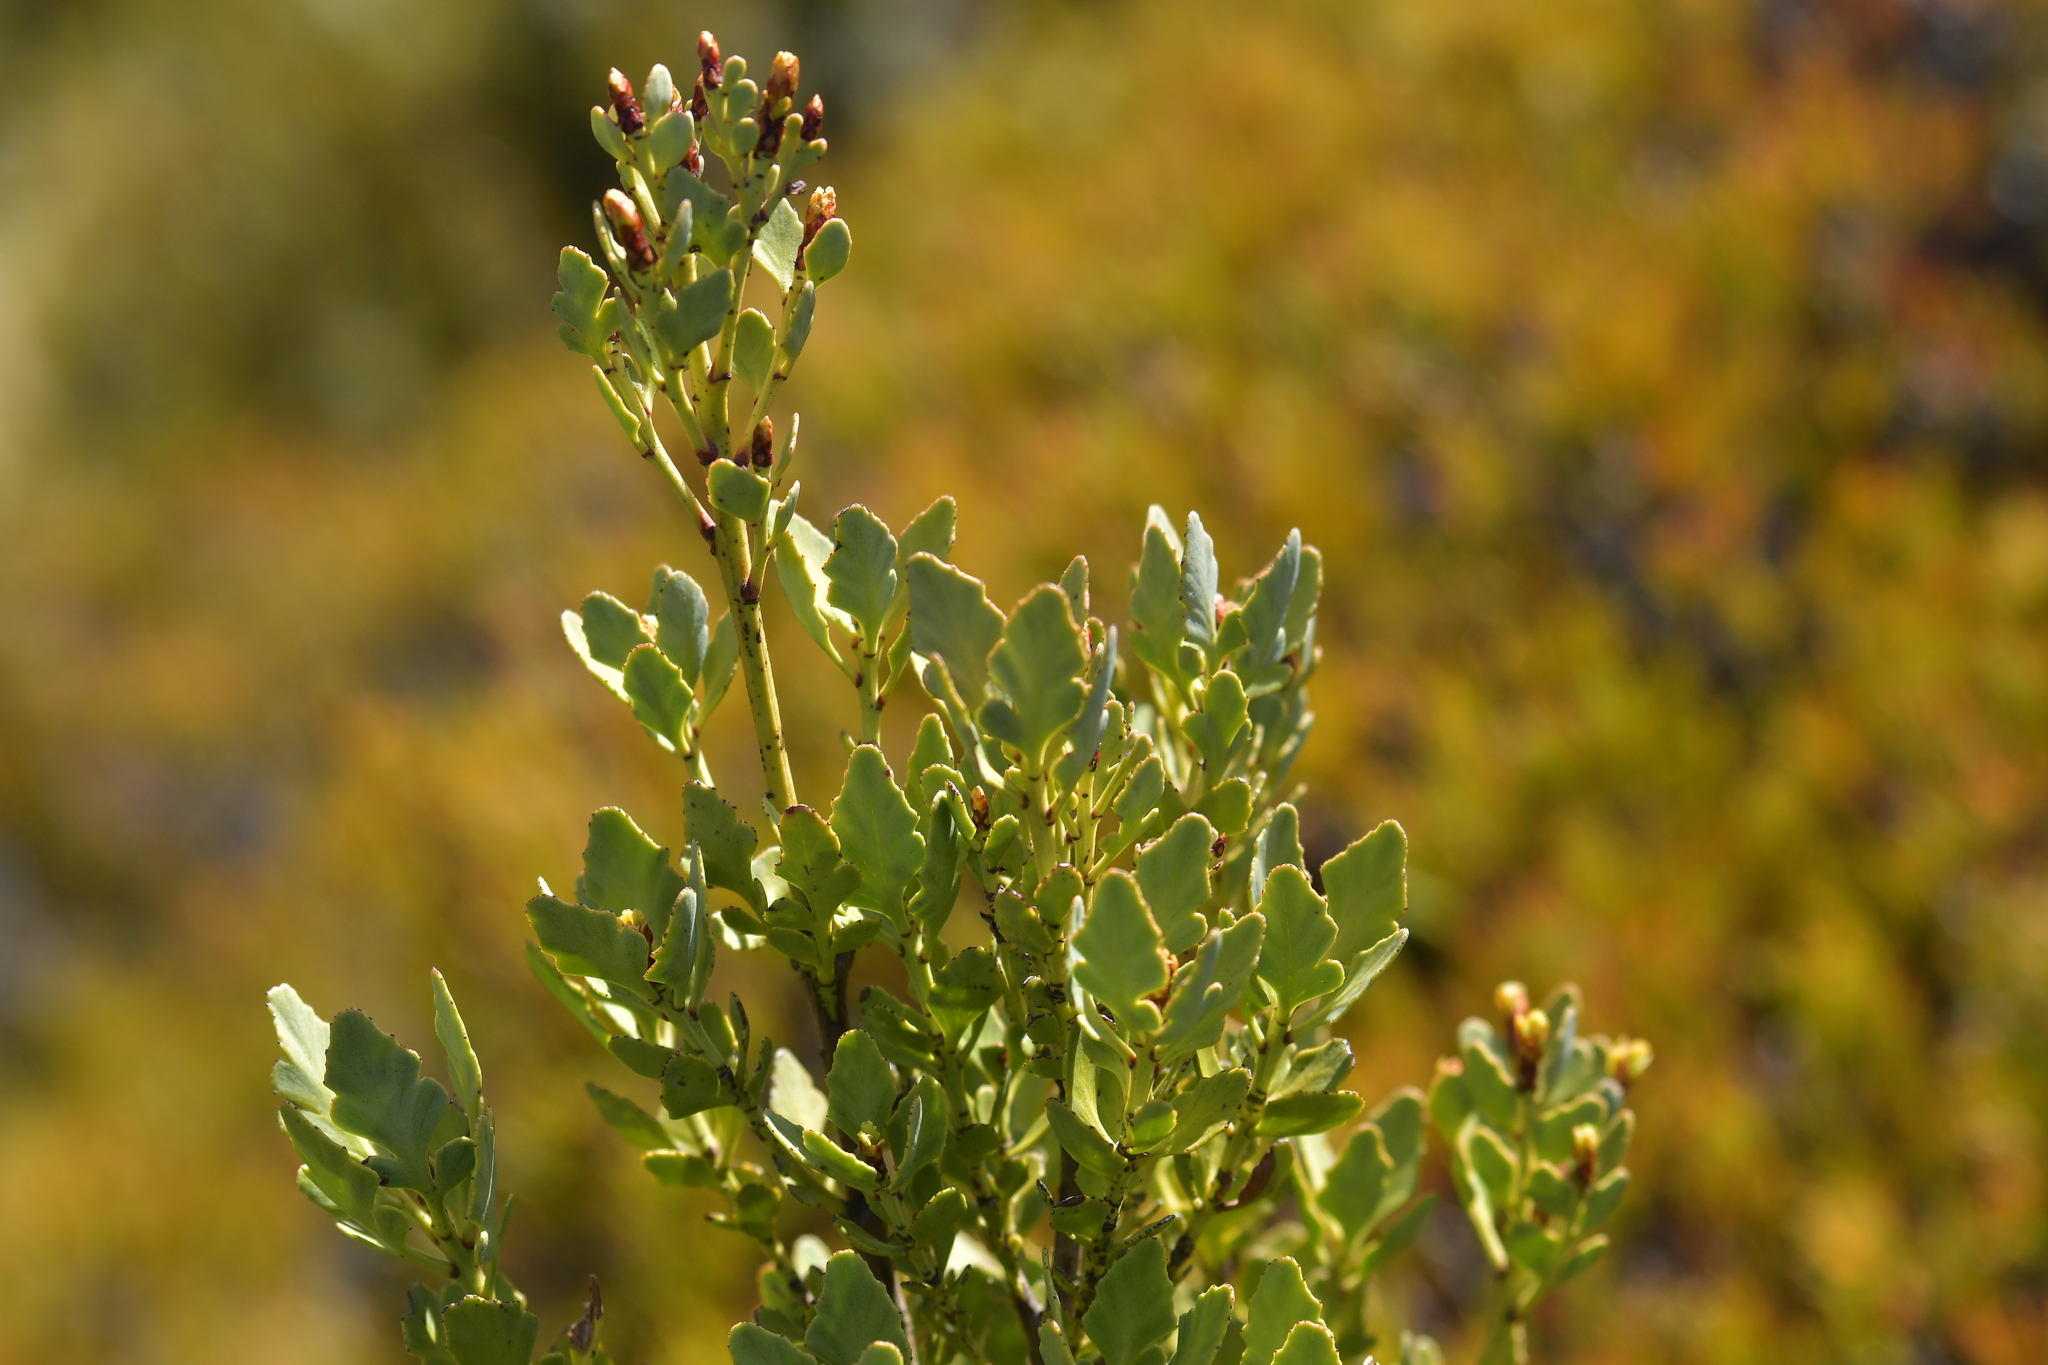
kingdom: Plantae
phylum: Tracheophyta
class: Pinopsida
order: Pinales
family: Phyllocladaceae
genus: Phyllocladus
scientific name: Phyllocladus trichomanoides
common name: Celery pine
